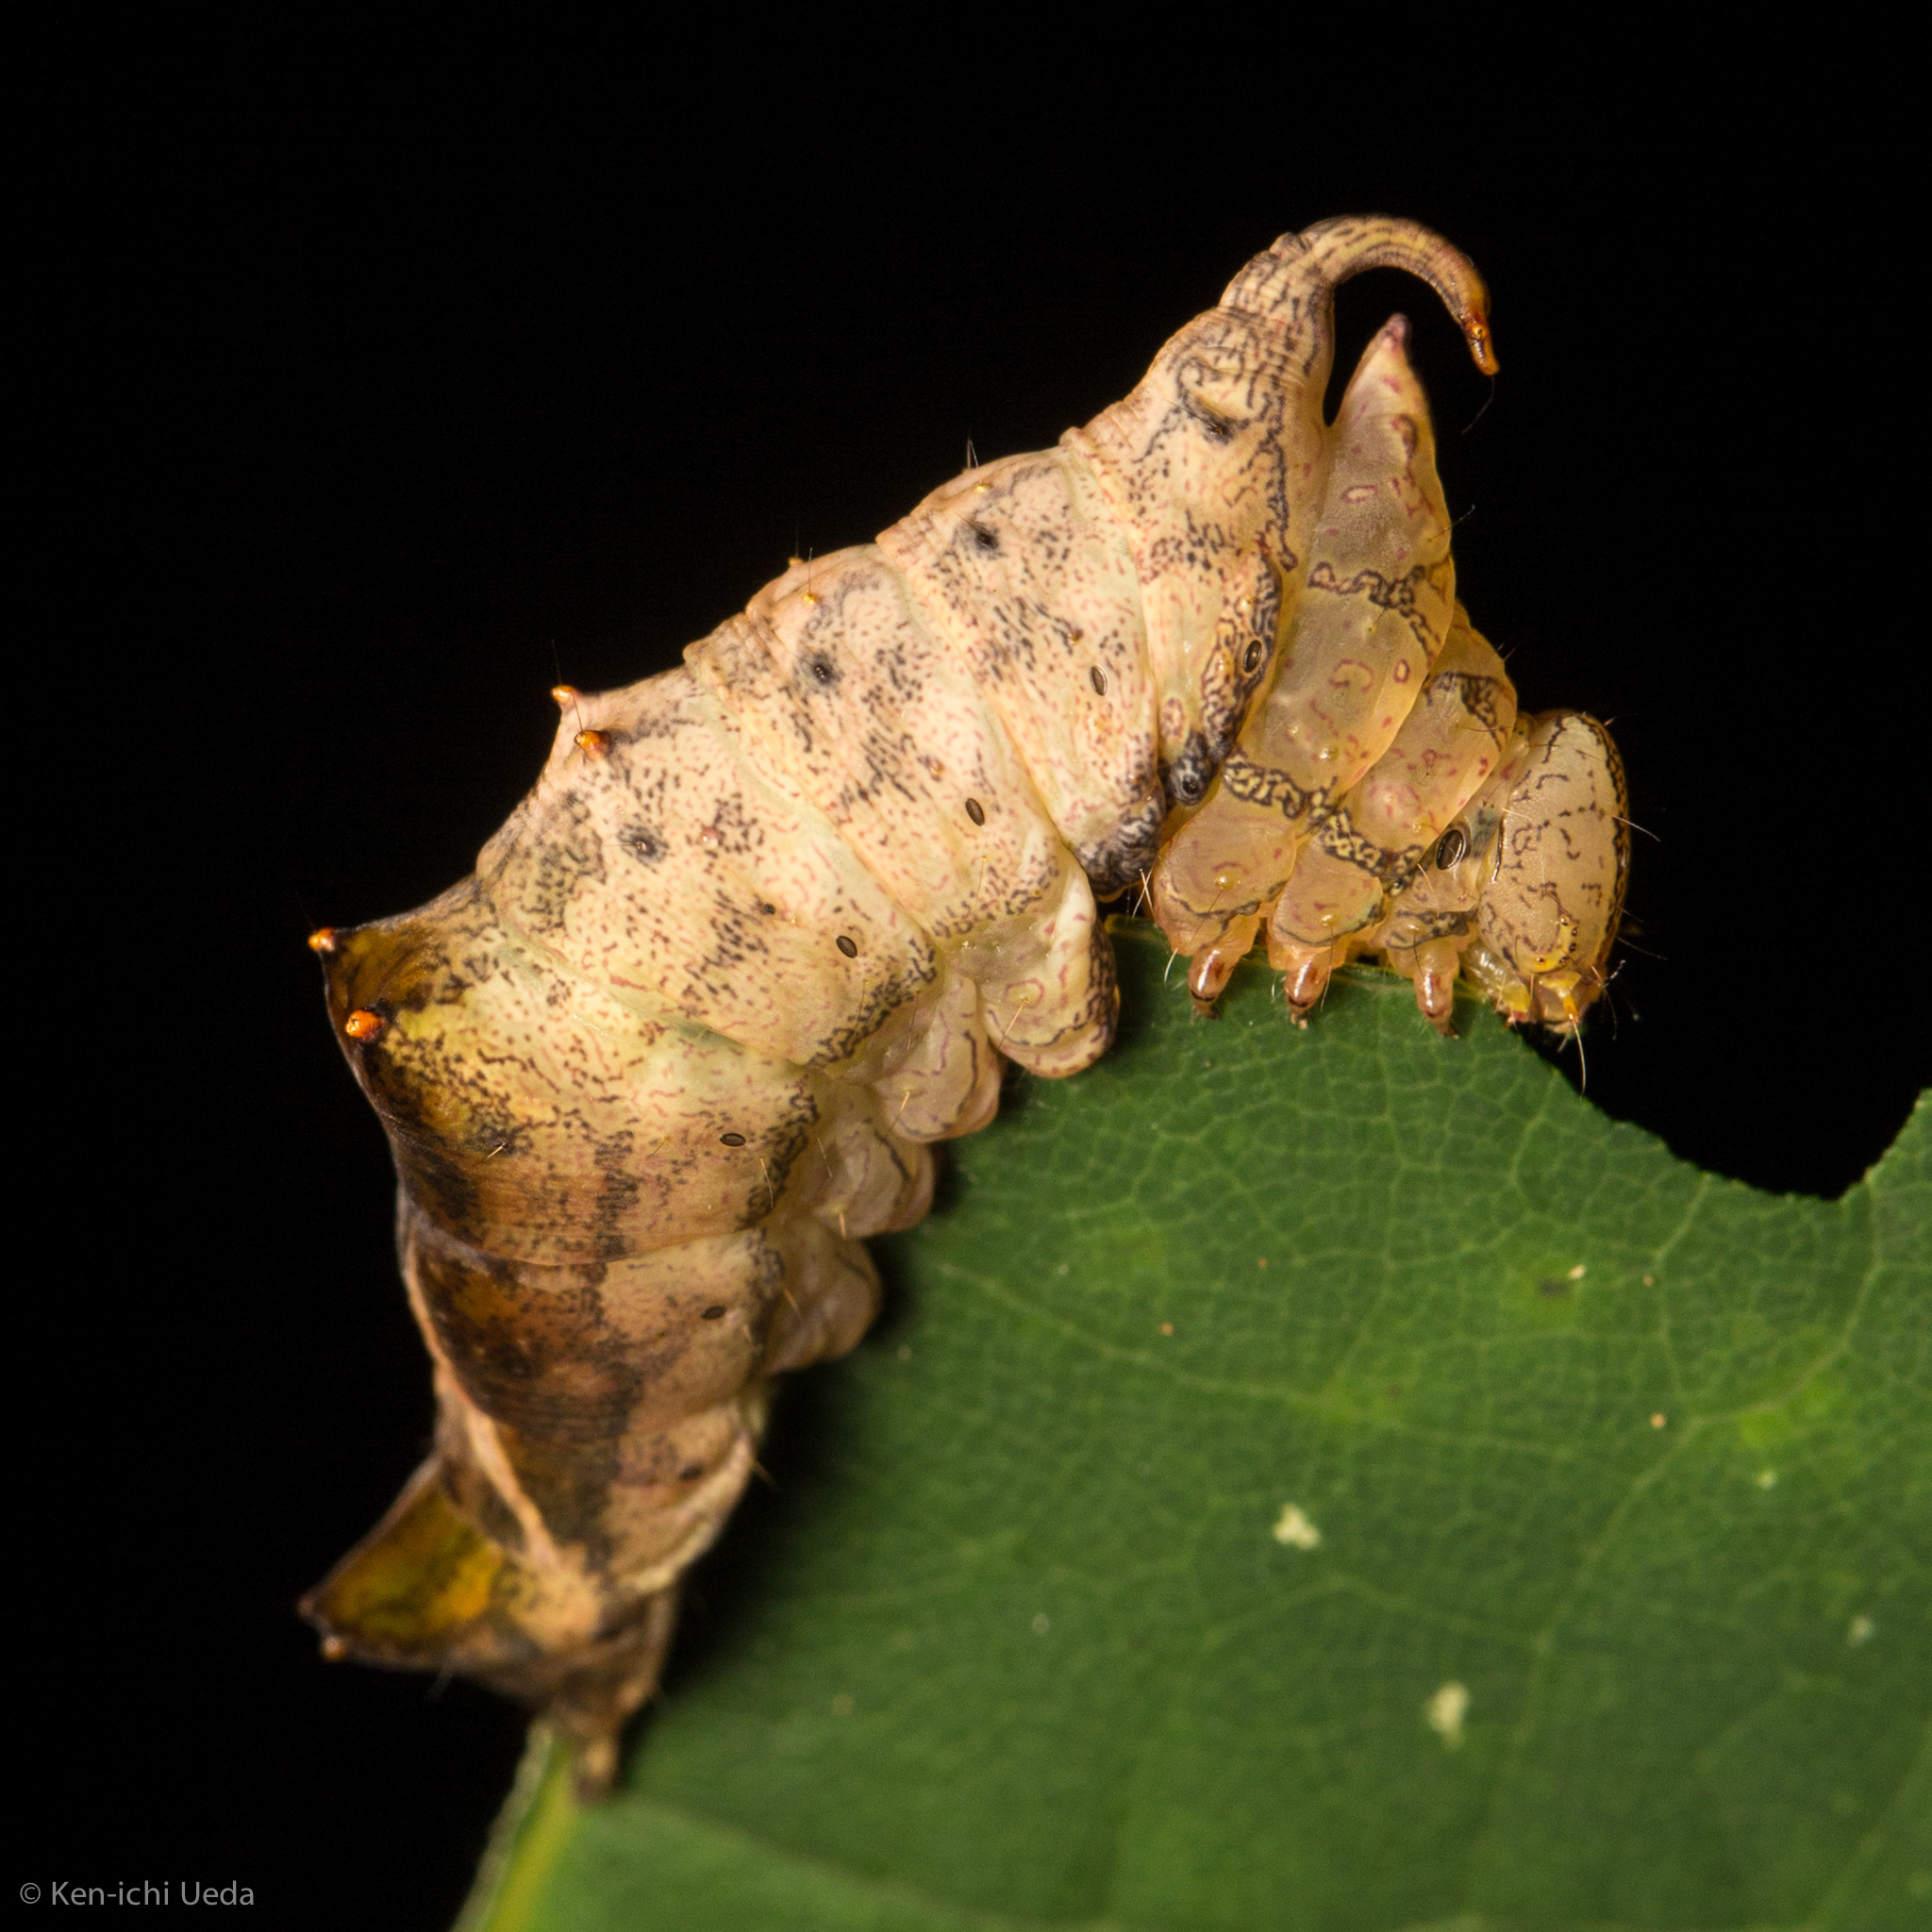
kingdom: Animalia
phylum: Arthropoda
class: Insecta
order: Lepidoptera
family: Notodontidae
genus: Schizura
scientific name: Schizura
